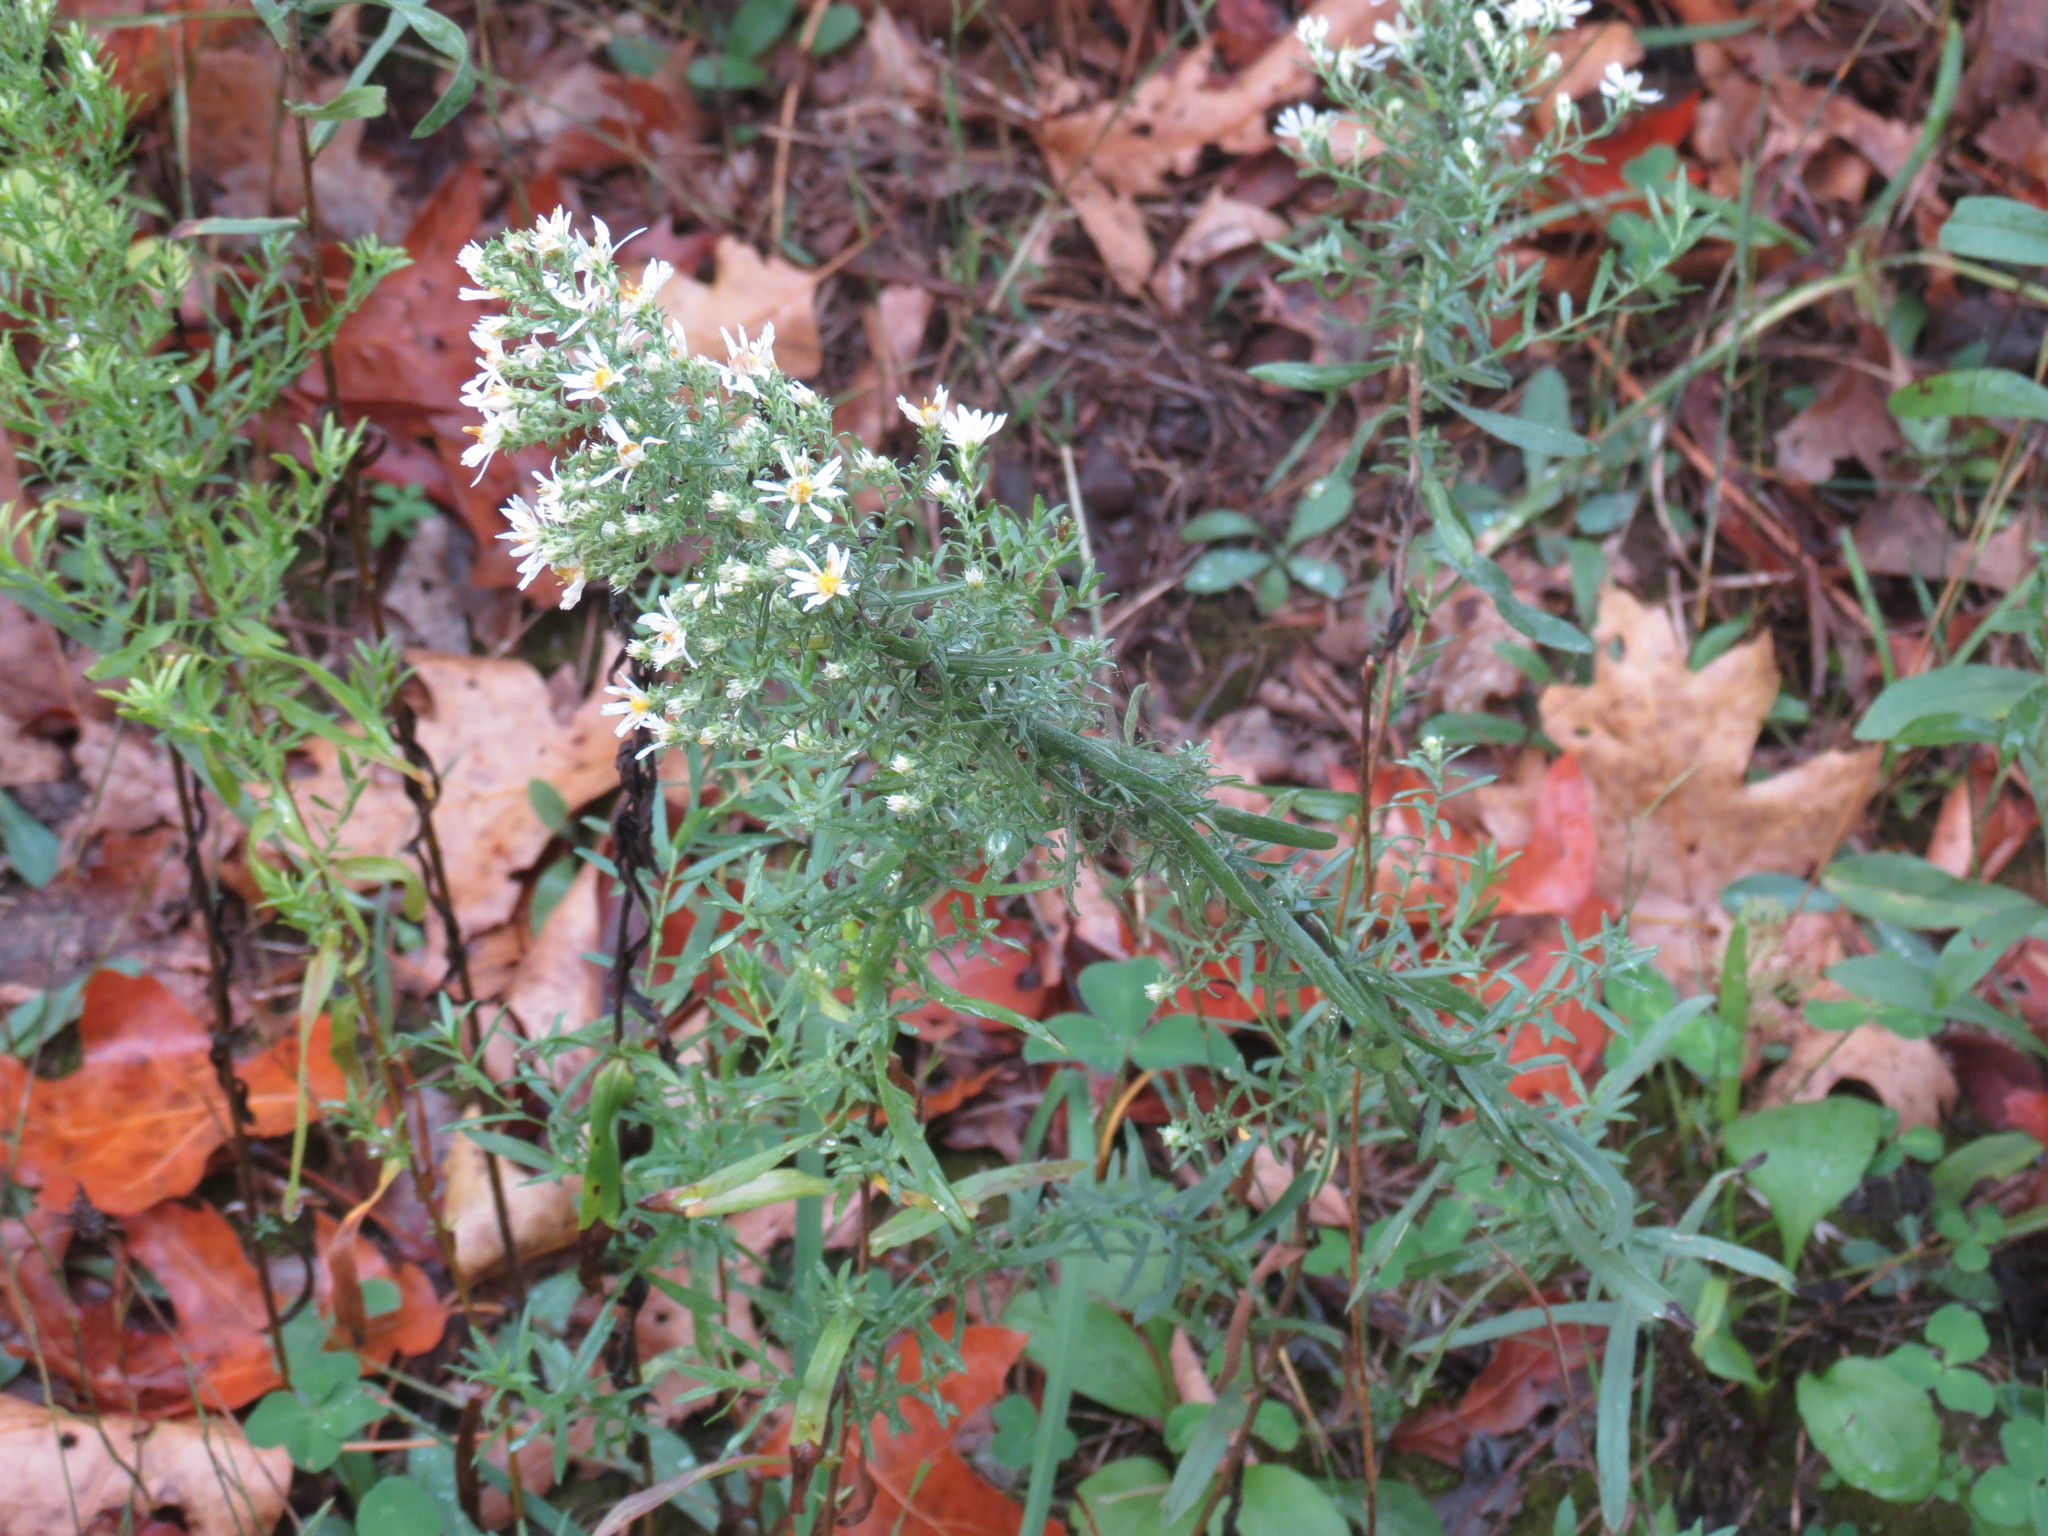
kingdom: Plantae
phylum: Tracheophyta
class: Magnoliopsida
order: Asterales
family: Asteraceae
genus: Symphyotrichum
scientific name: Symphyotrichum ericoides
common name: Heath aster
